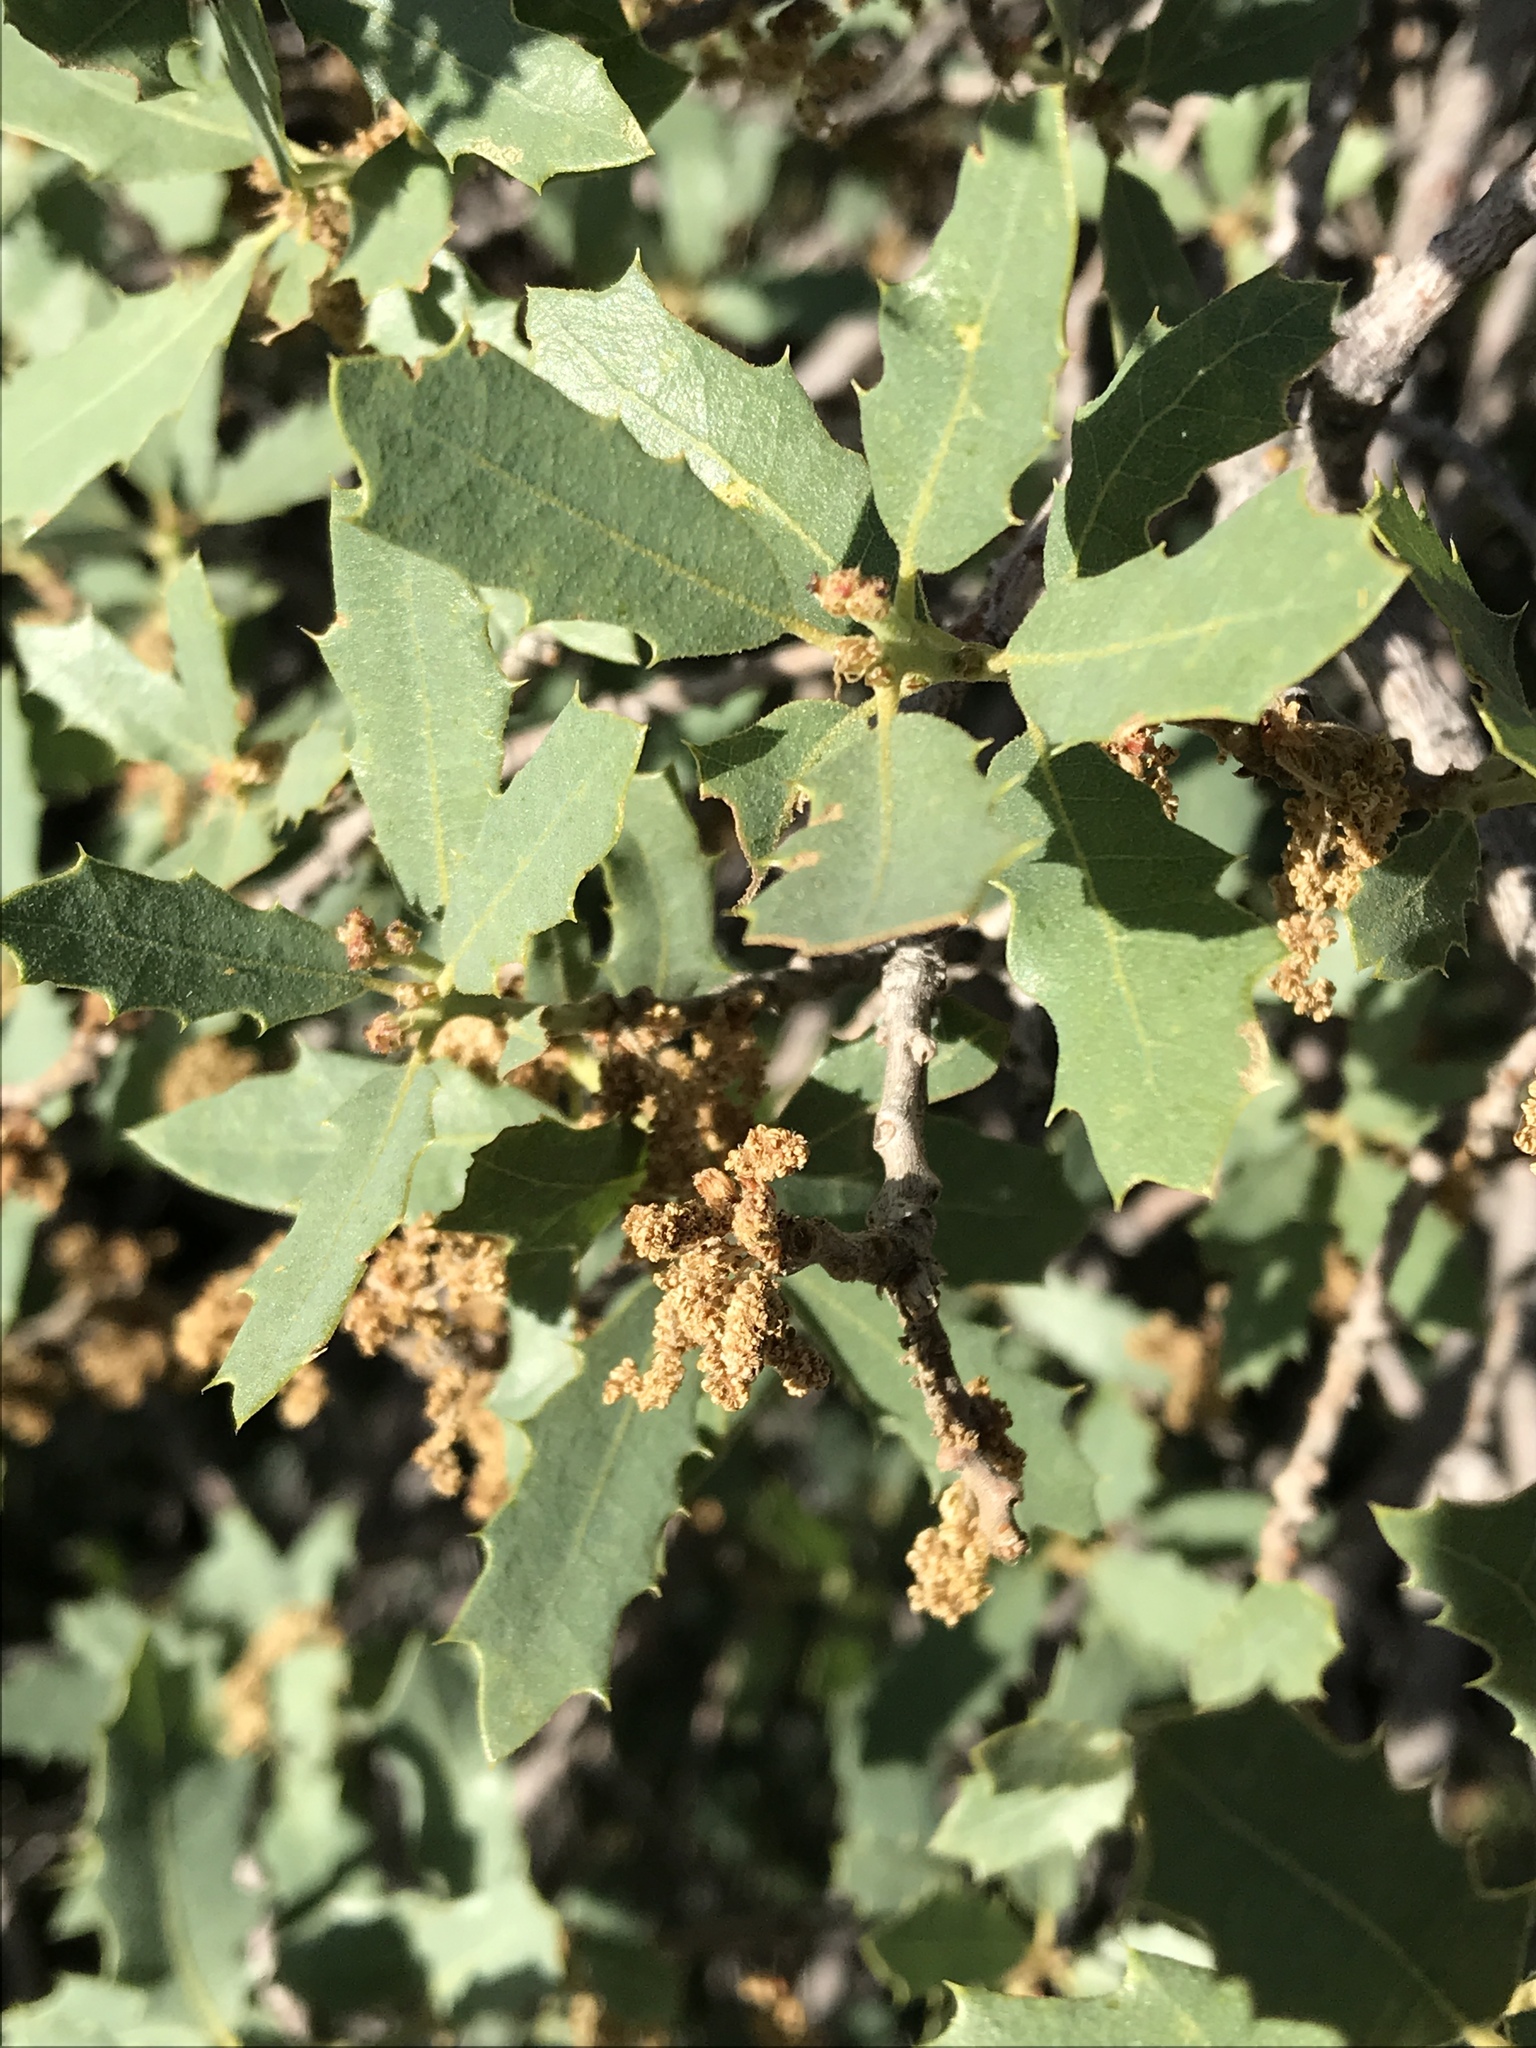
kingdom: Plantae
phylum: Tracheophyta
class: Magnoliopsida
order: Fagales
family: Fagaceae
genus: Quercus
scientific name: Quercus turbinella
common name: Sonoran scrub oak
